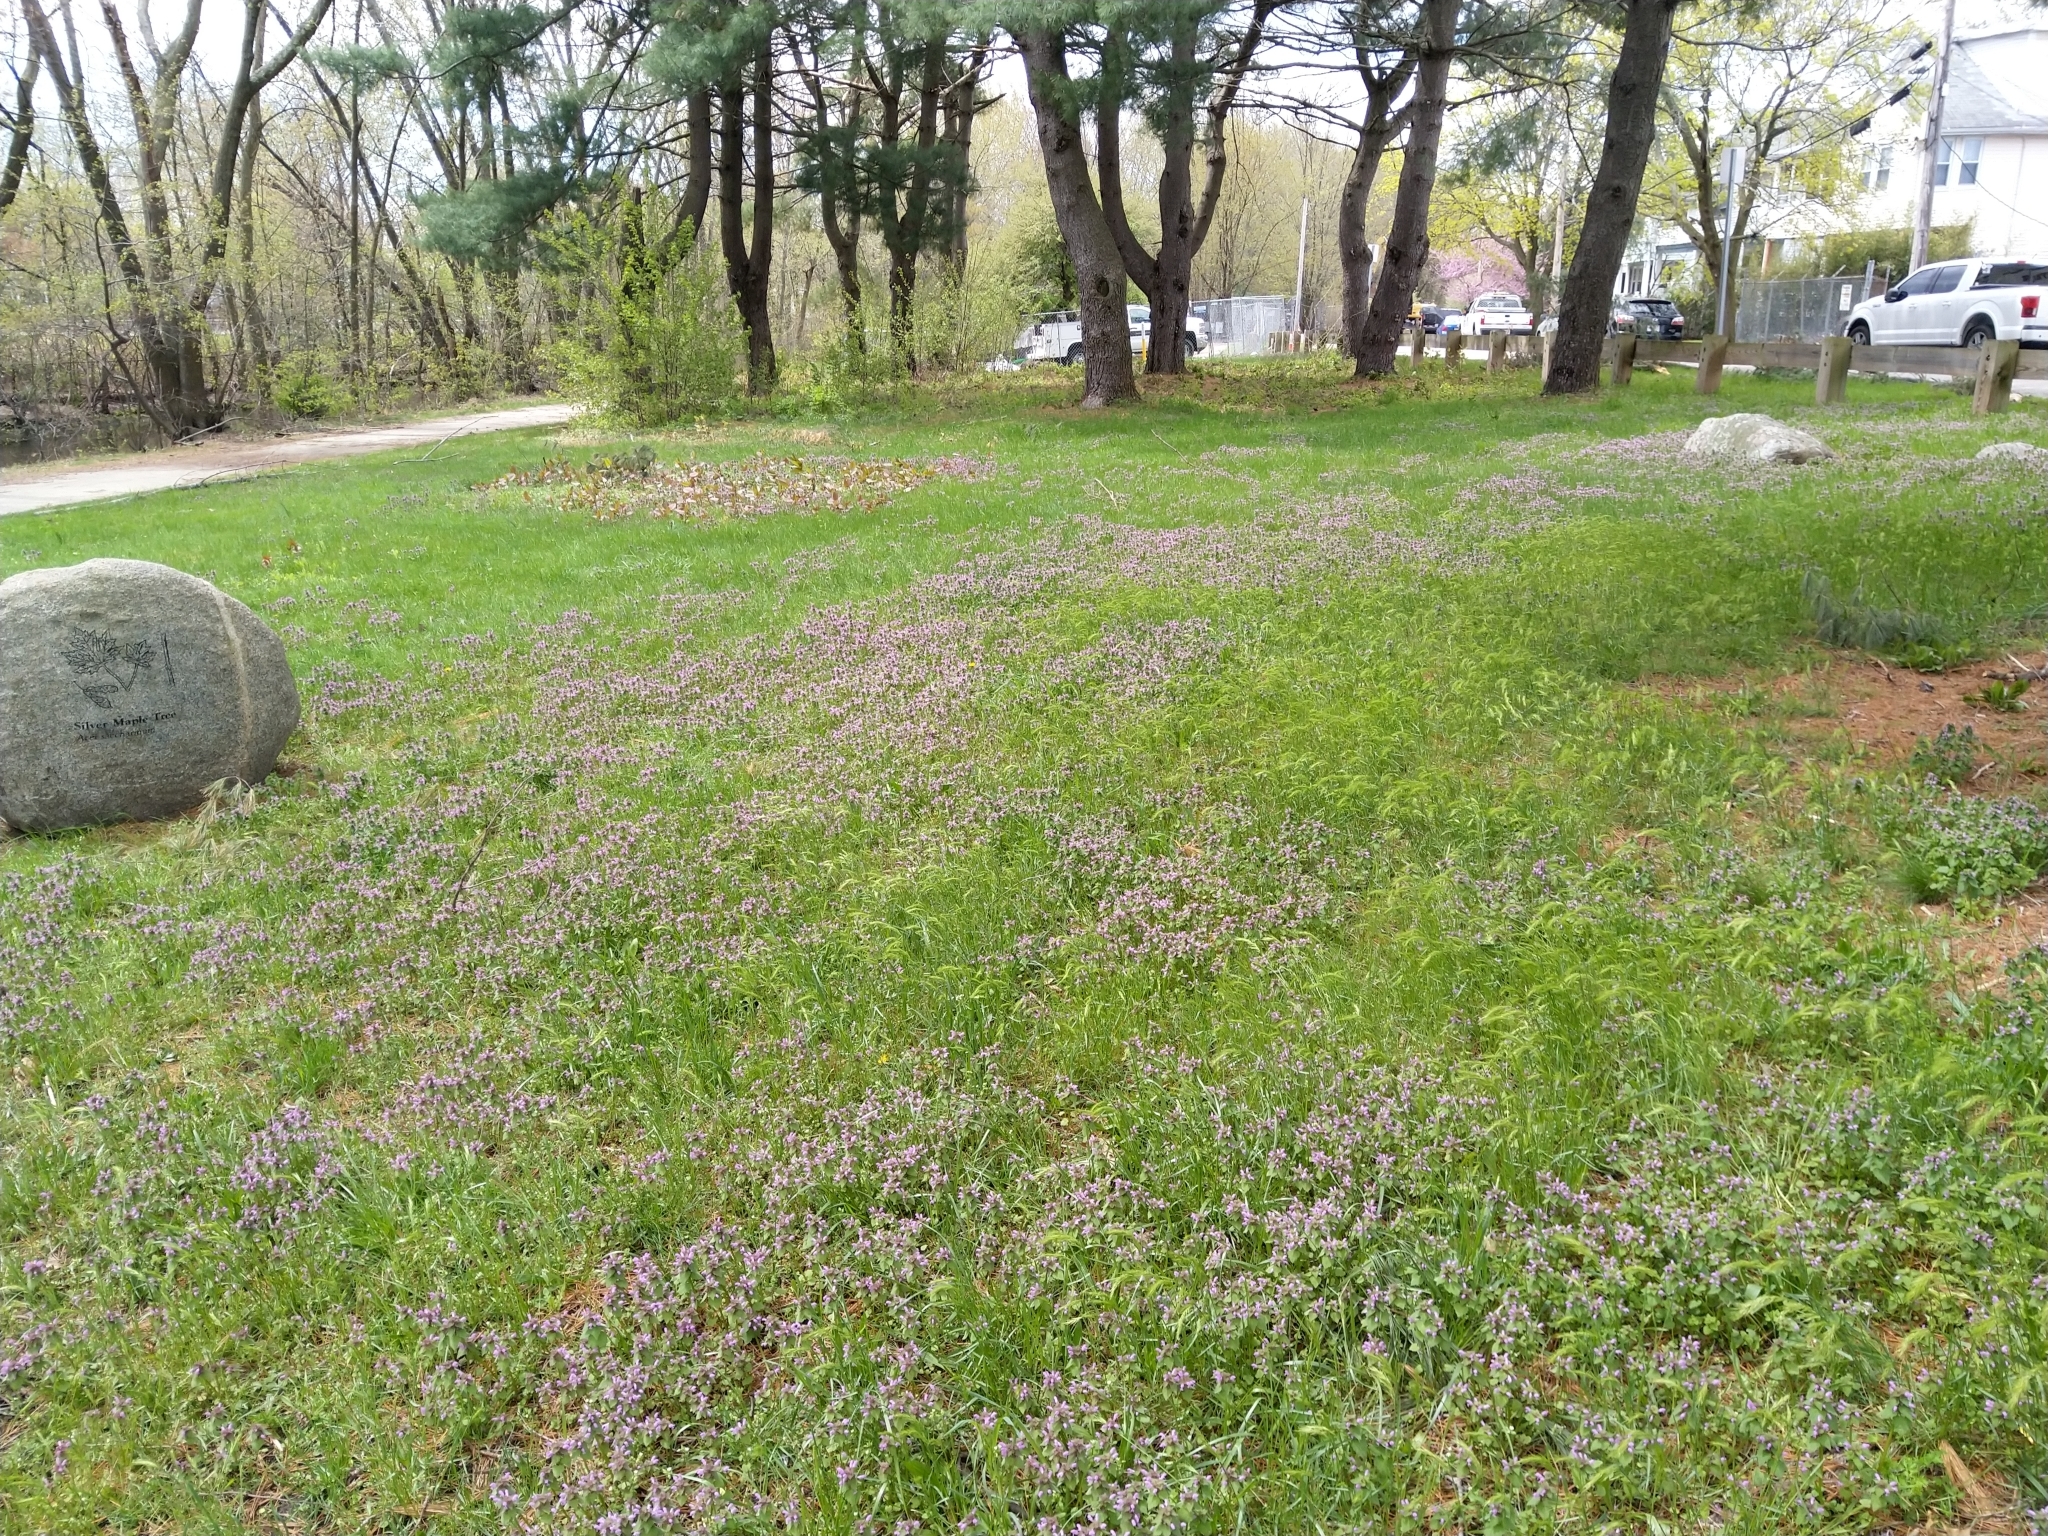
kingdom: Plantae
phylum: Tracheophyta
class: Magnoliopsida
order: Lamiales
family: Lamiaceae
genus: Lamium
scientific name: Lamium purpureum
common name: Red dead-nettle
